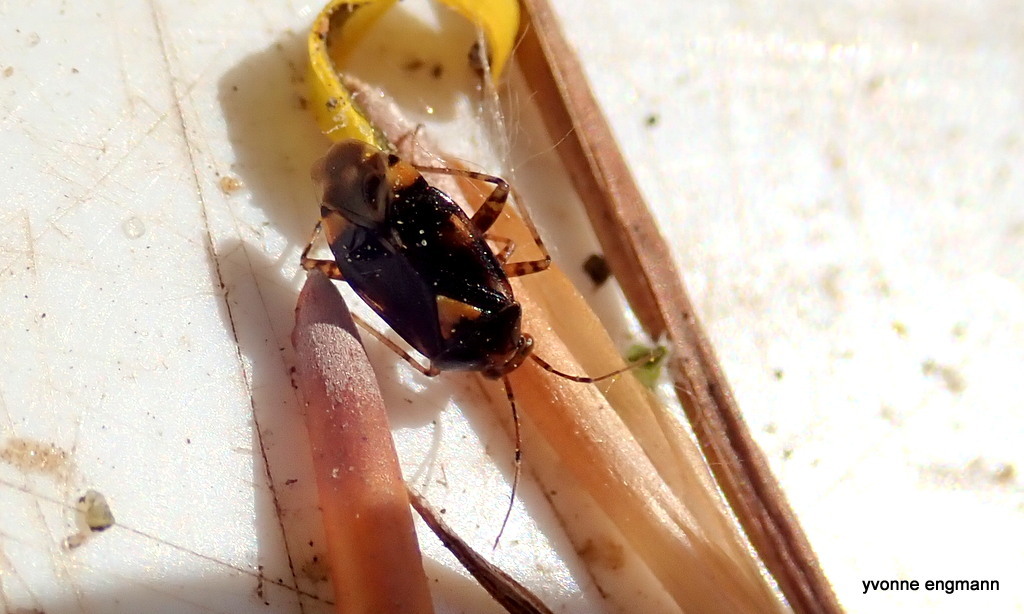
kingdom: Animalia
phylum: Arthropoda
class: Insecta
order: Hemiptera
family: Miridae
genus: Liocoris
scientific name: Liocoris tripustulatus
